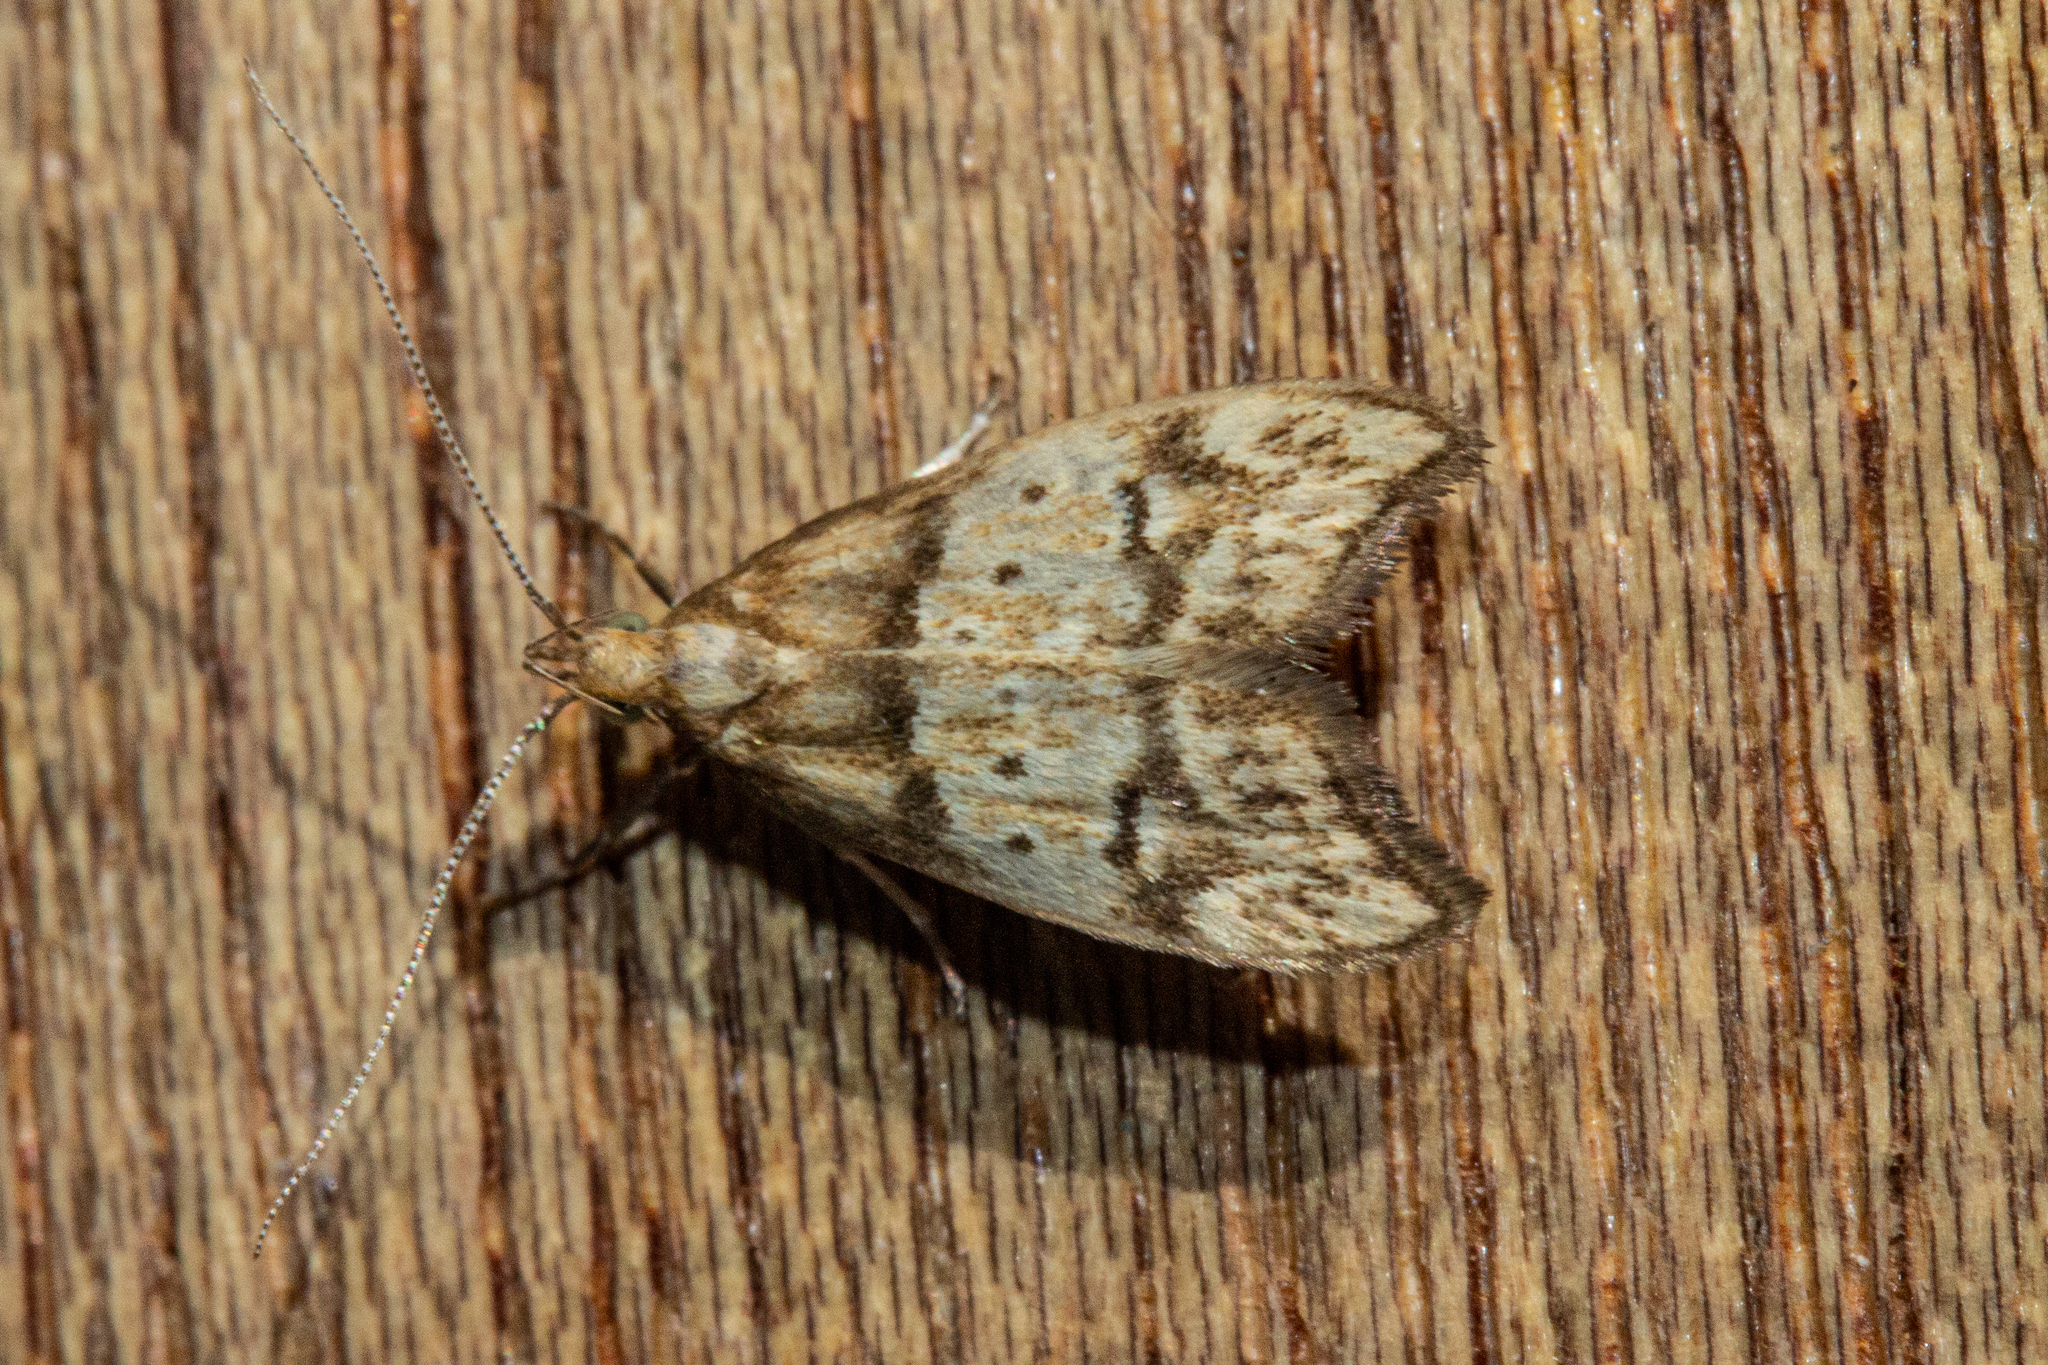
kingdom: Animalia
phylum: Arthropoda
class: Insecta
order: Lepidoptera
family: Oecophoridae
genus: Gymnobathra
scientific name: Gymnobathra hamatella
